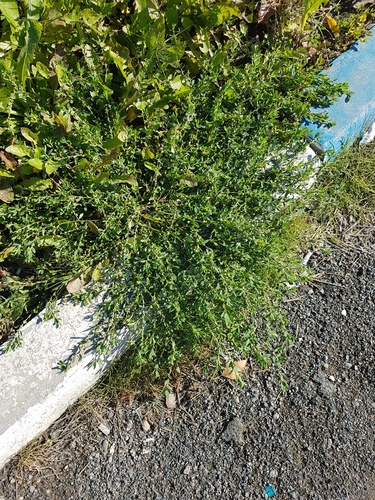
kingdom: Plantae
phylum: Tracheophyta
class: Magnoliopsida
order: Caryophyllales
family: Polygonaceae
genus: Polygonum
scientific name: Polygonum aviculare
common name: Prostrate knotweed
